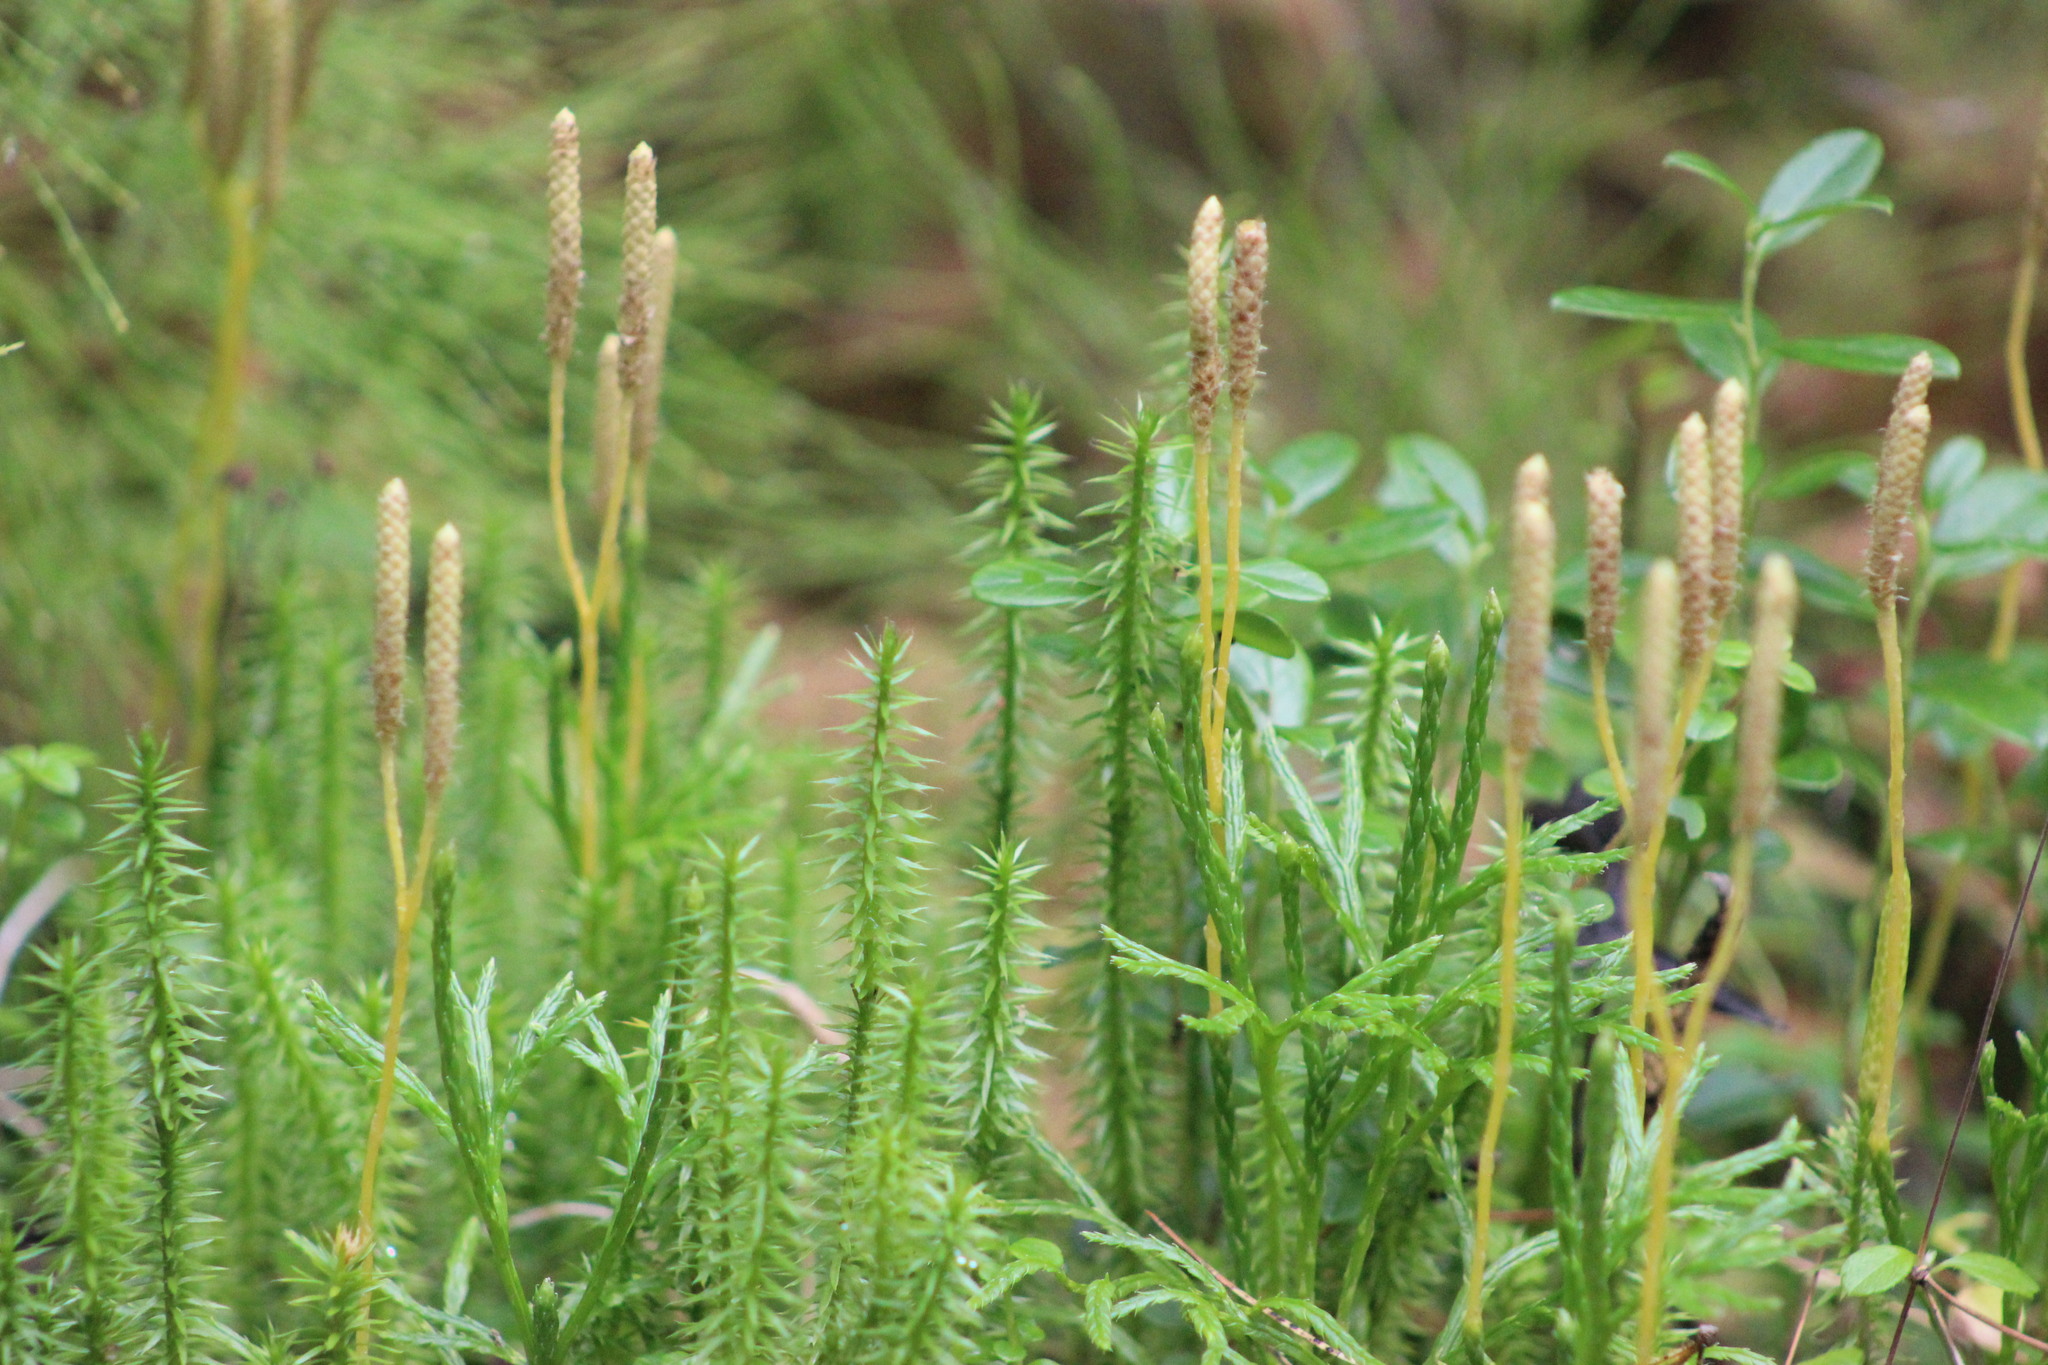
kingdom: Plantae
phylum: Tracheophyta
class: Lycopodiopsida
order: Lycopodiales
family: Lycopodiaceae
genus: Spinulum
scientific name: Spinulum annotinum
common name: Interrupted club-moss
